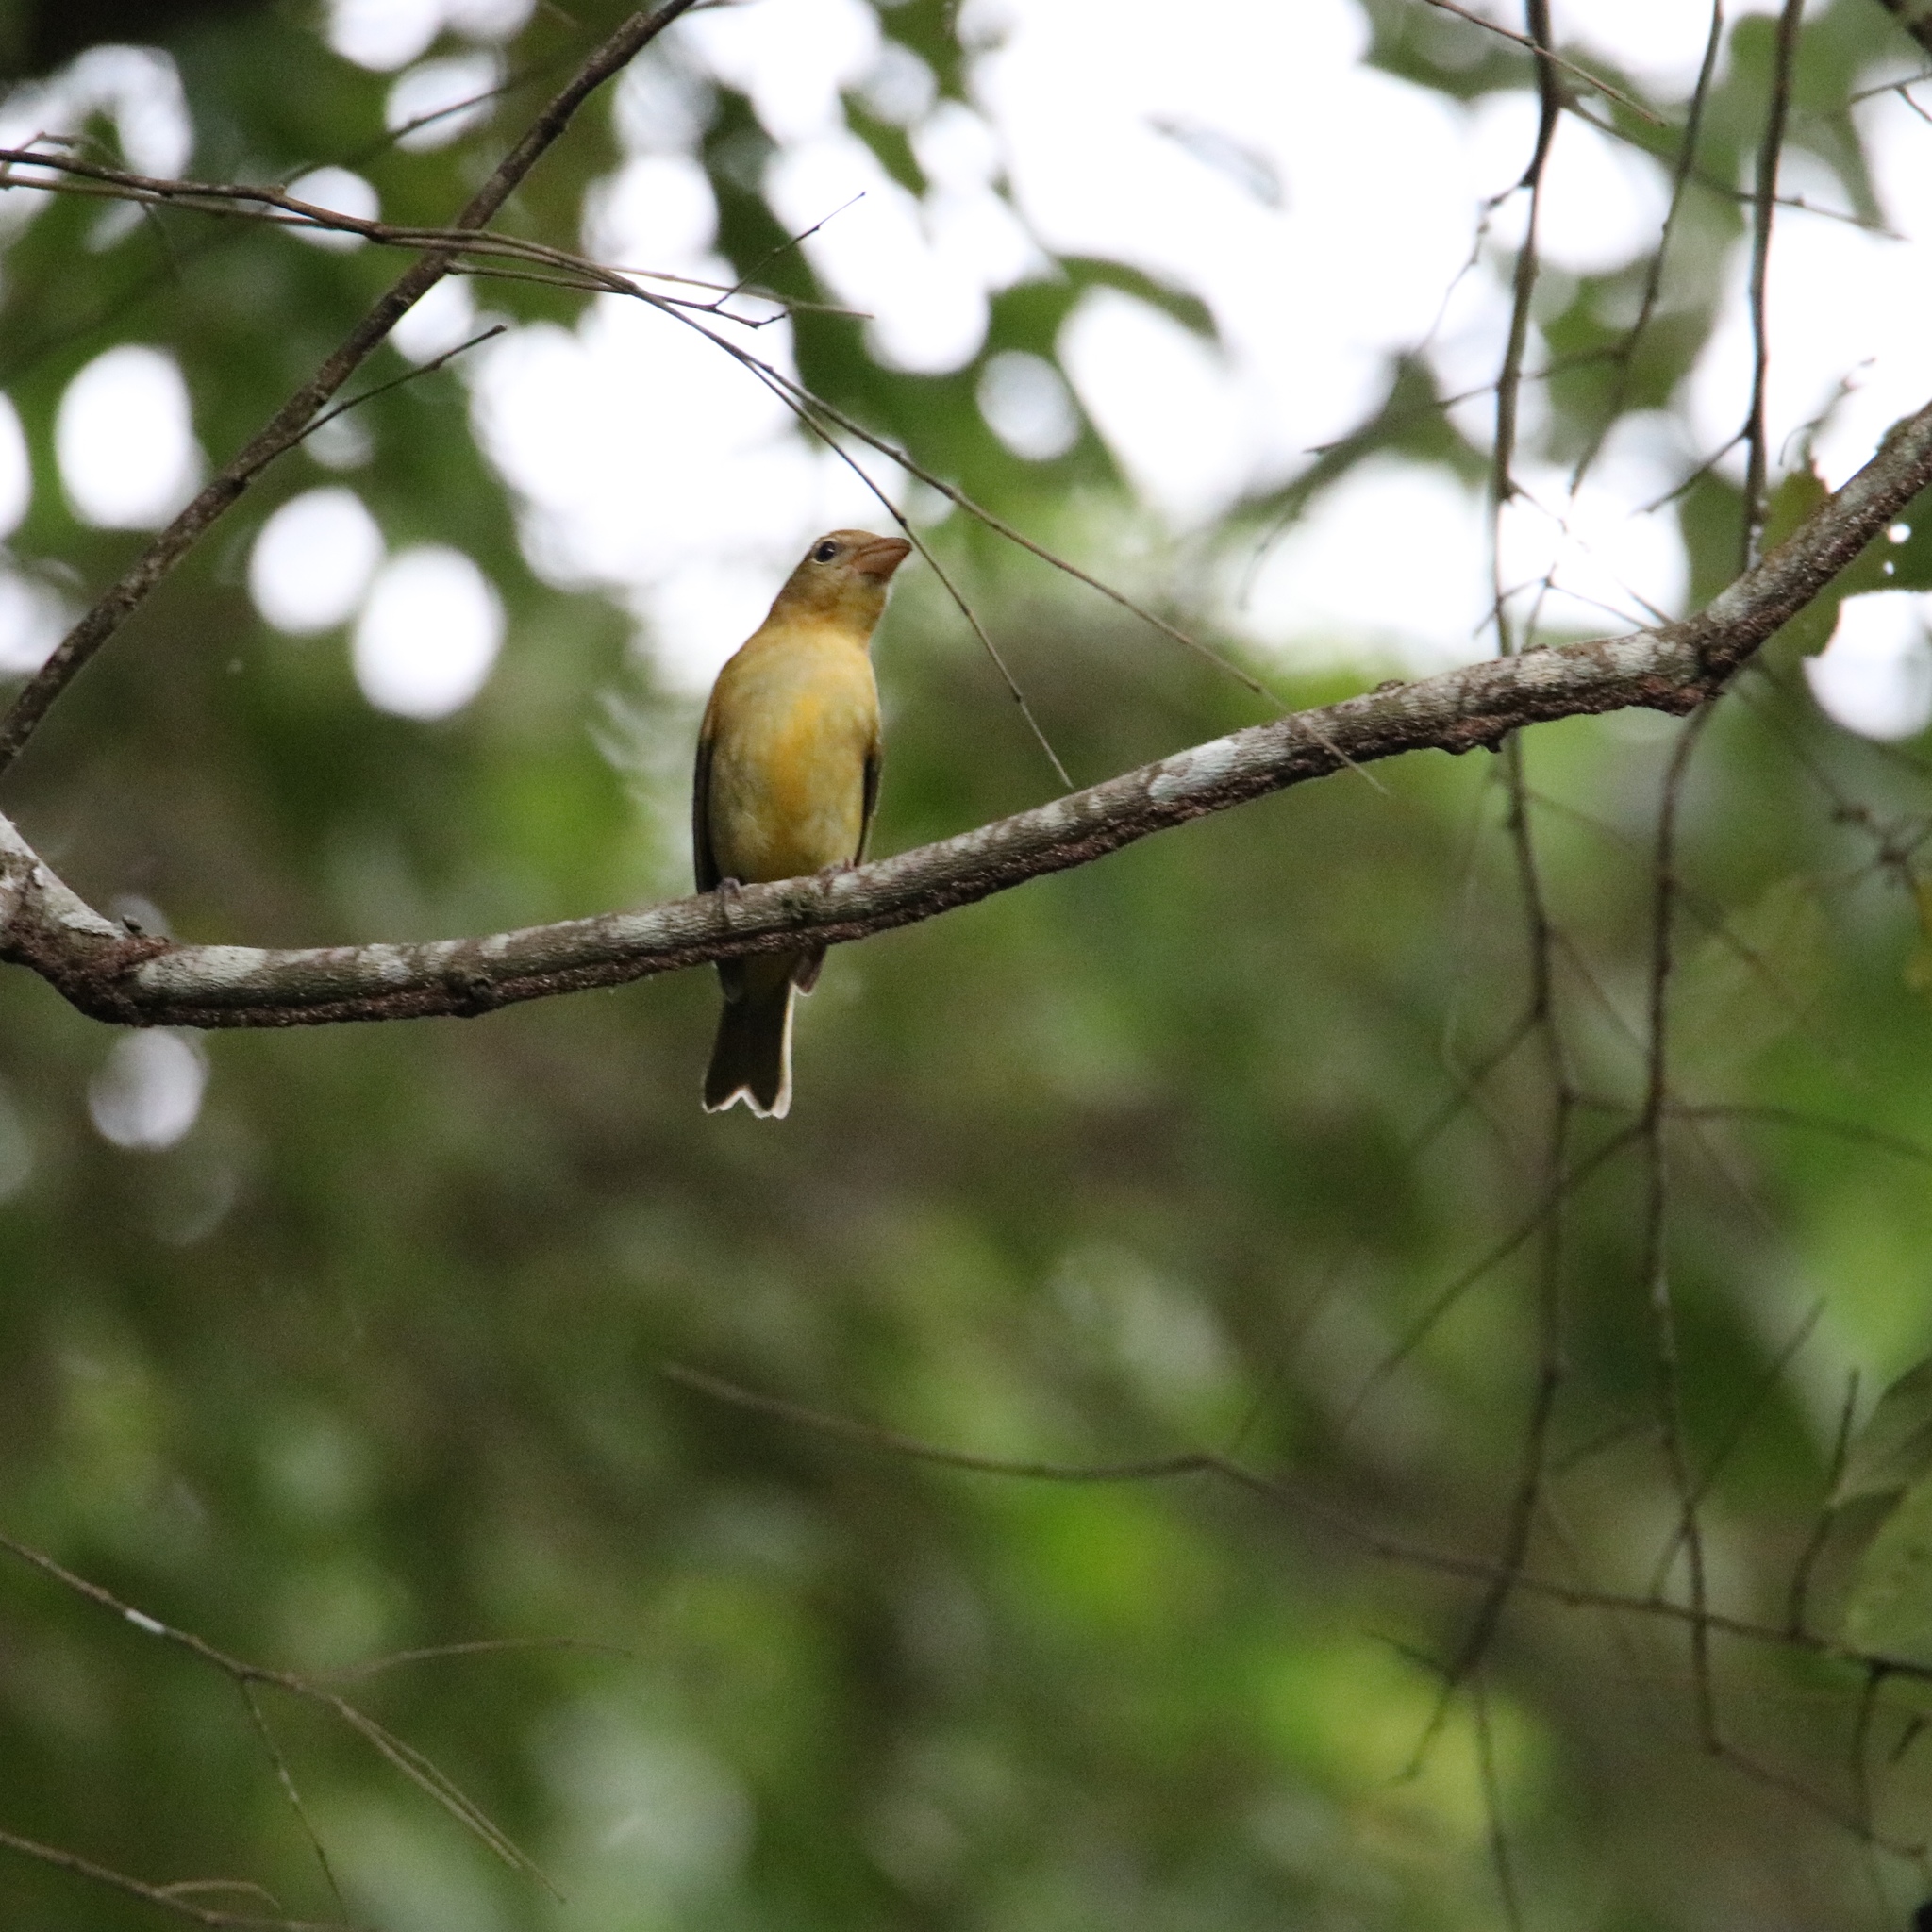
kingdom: Animalia
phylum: Chordata
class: Aves
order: Passeriformes
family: Cardinalidae
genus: Piranga
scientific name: Piranga rubra
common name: Summer tanager
